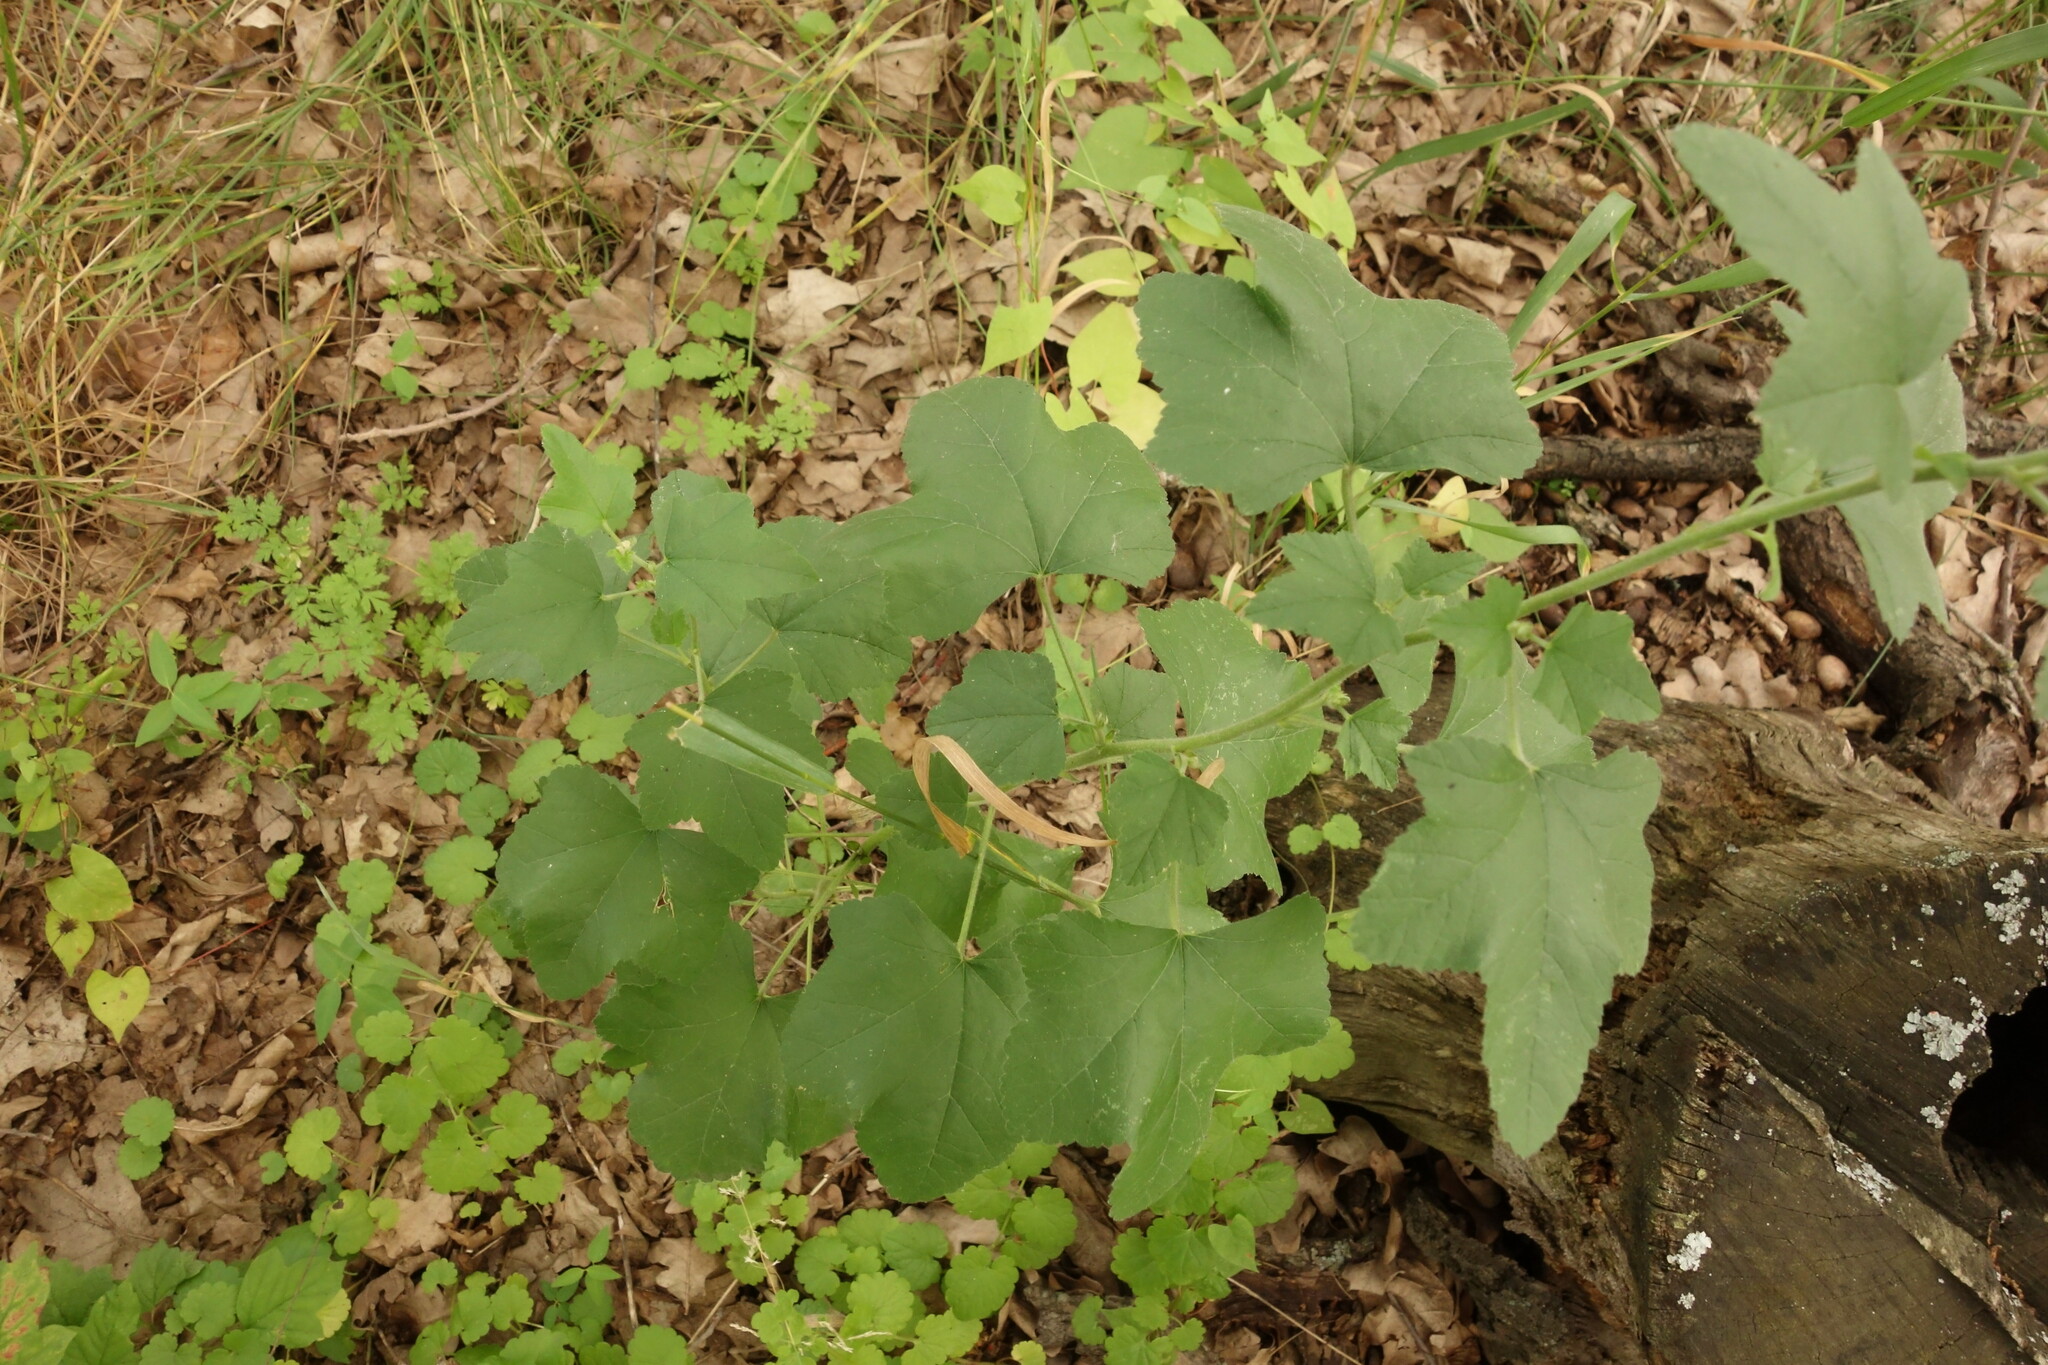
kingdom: Plantae
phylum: Tracheophyta
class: Magnoliopsida
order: Malvales
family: Malvaceae
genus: Malva
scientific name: Malva thuringiaca
